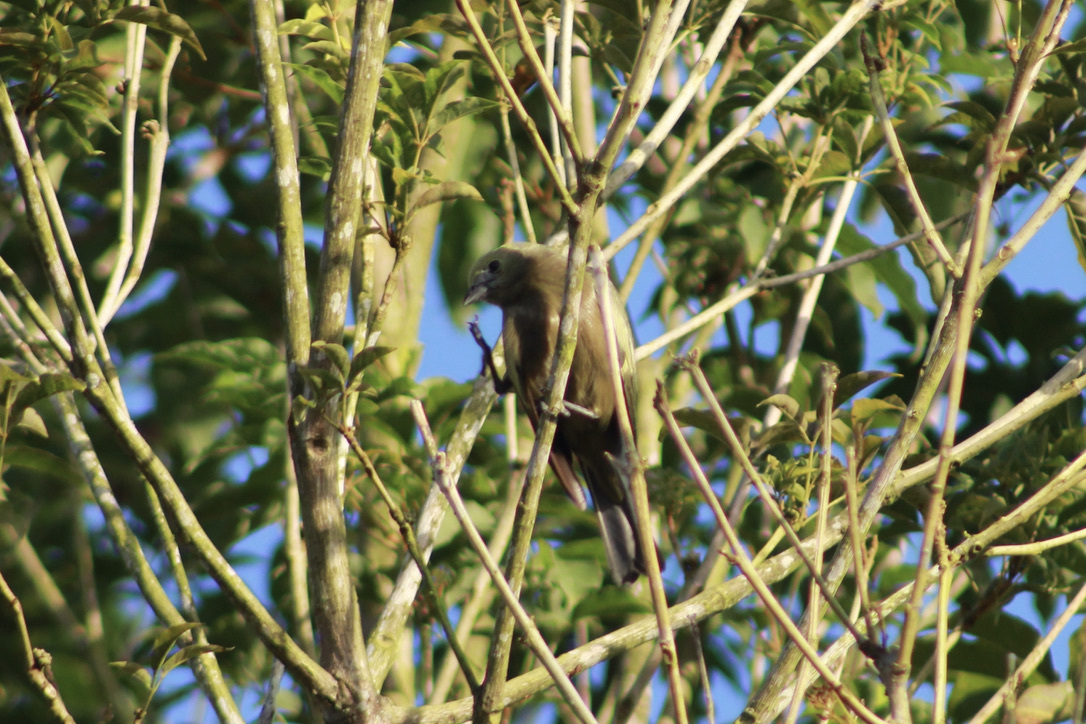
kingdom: Animalia
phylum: Chordata
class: Aves
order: Passeriformes
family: Thraupidae
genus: Thraupis
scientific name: Thraupis palmarum
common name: Palm tanager
